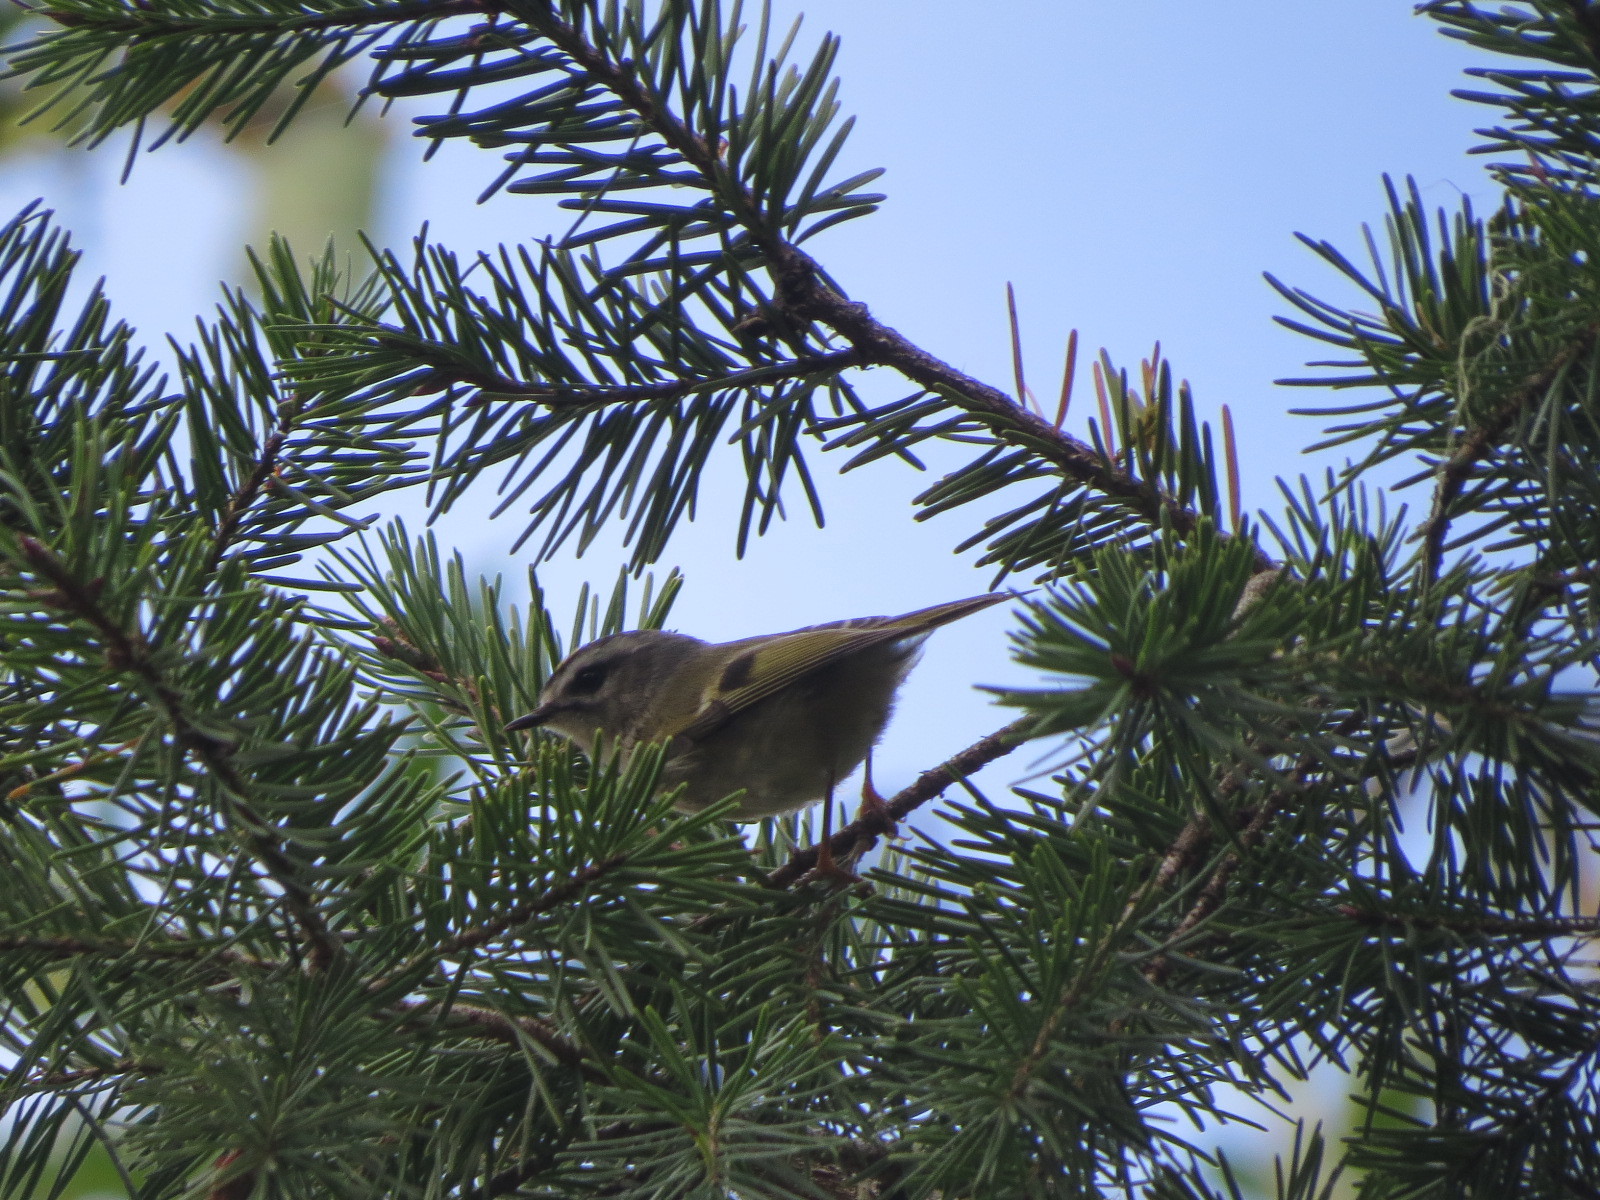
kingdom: Animalia
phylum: Chordata
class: Aves
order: Passeriformes
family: Regulidae
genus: Regulus
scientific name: Regulus satrapa
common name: Golden-crowned kinglet
